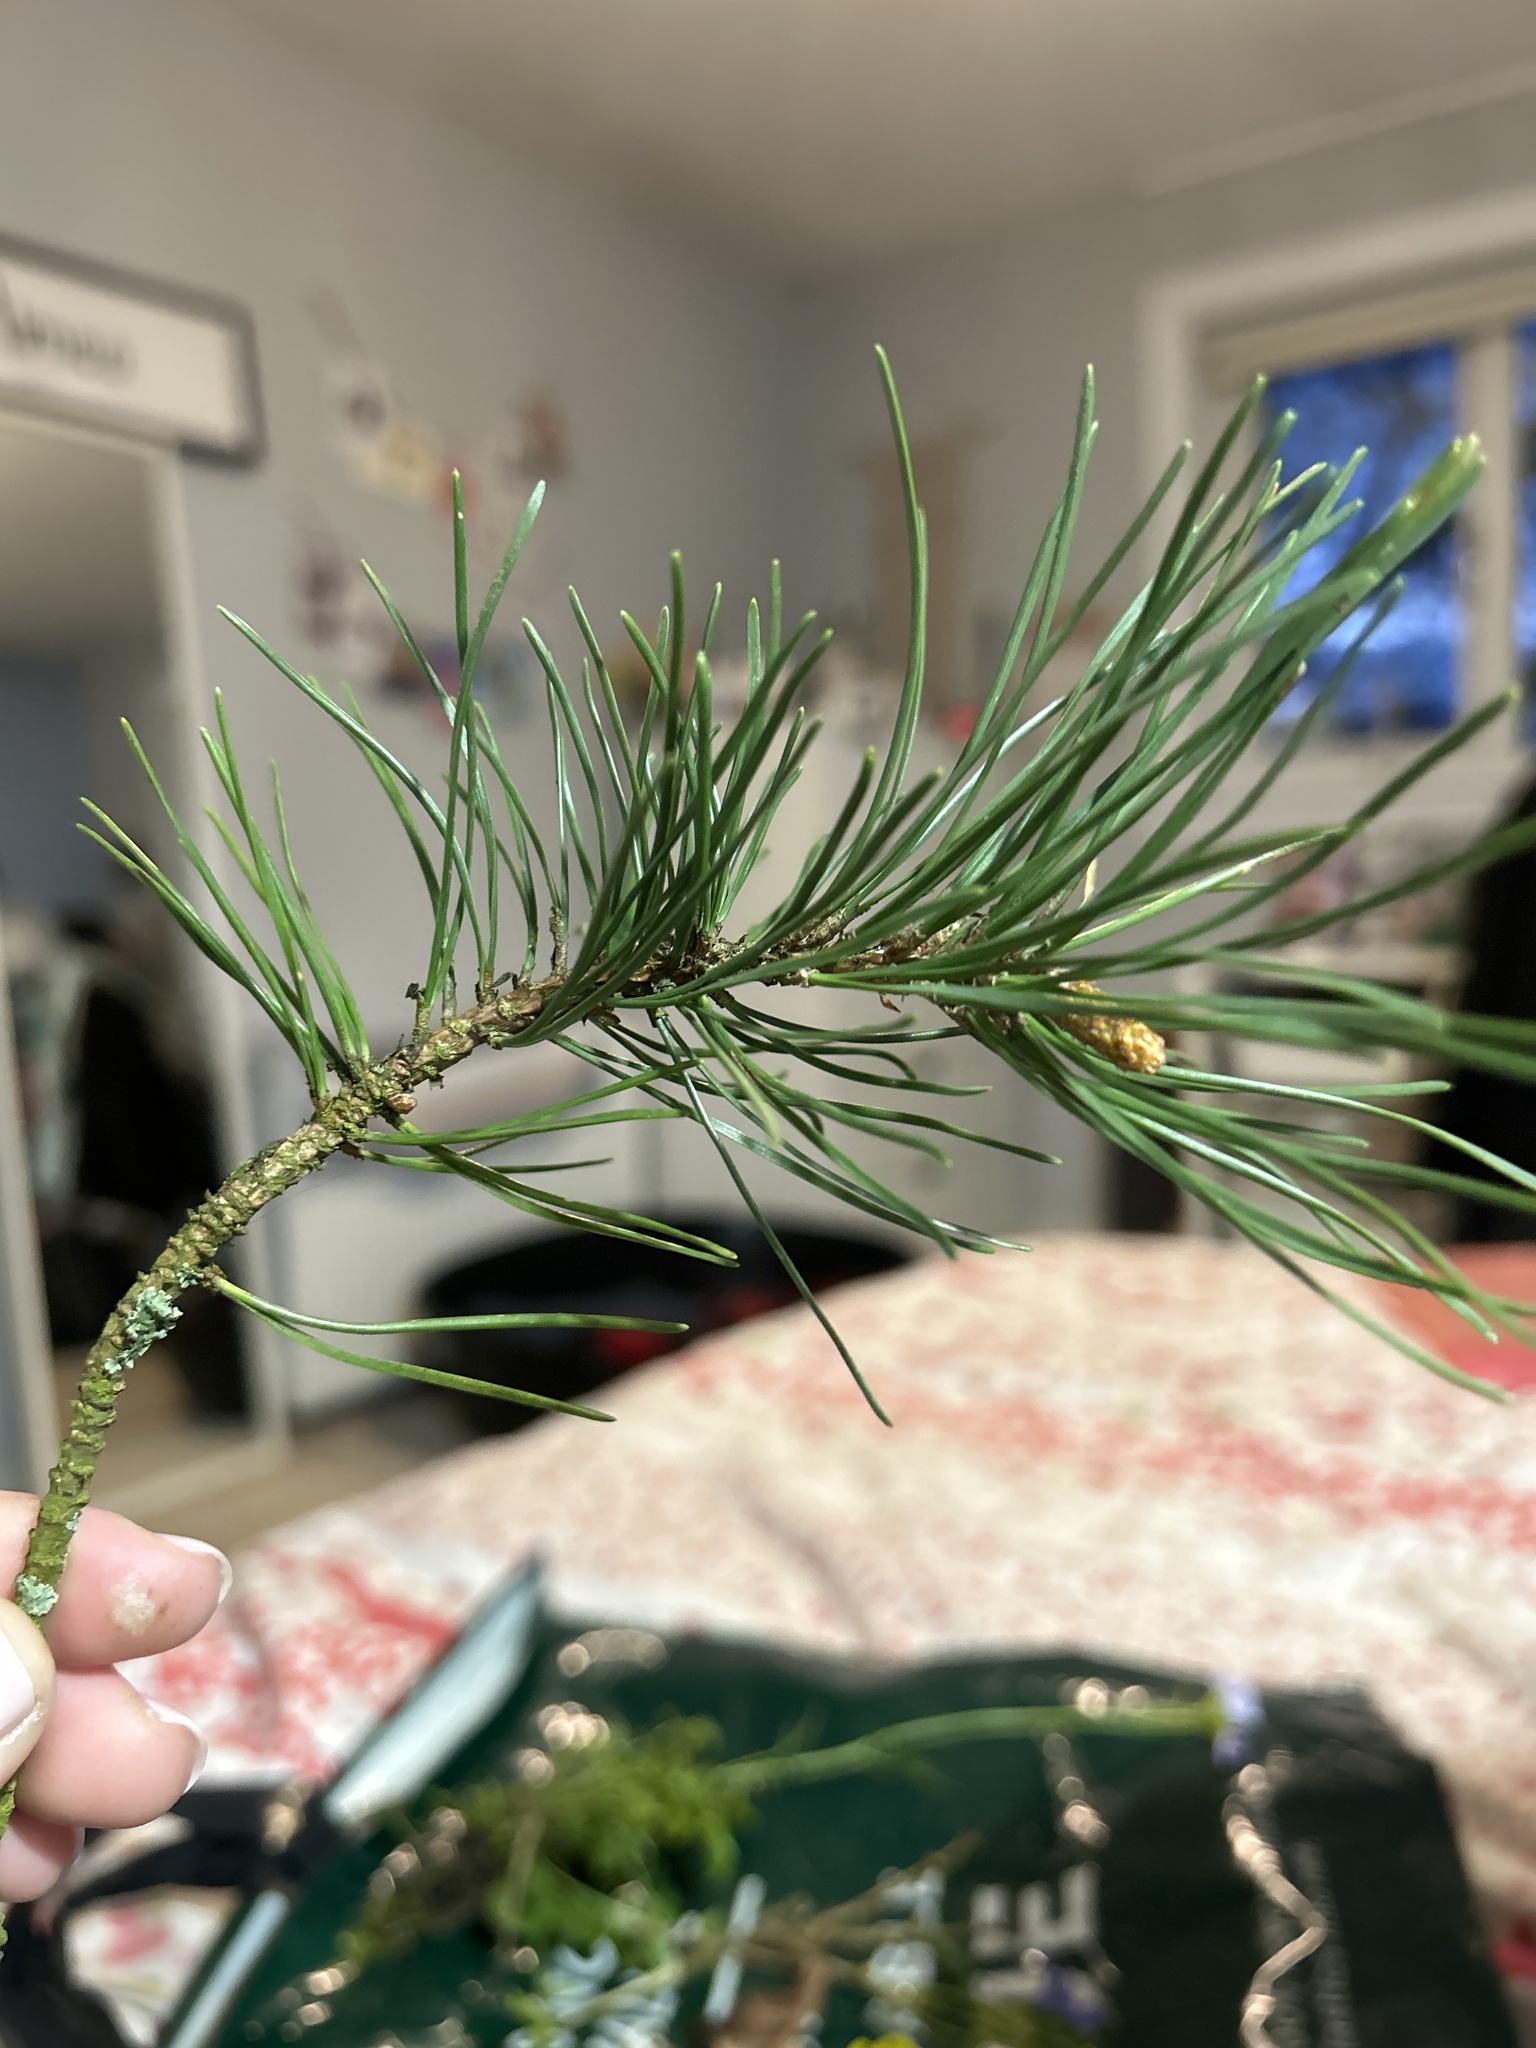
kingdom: Plantae
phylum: Tracheophyta
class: Pinopsida
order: Pinales
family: Pinaceae
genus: Pinus
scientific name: Pinus sylvestris
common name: Scots pine
